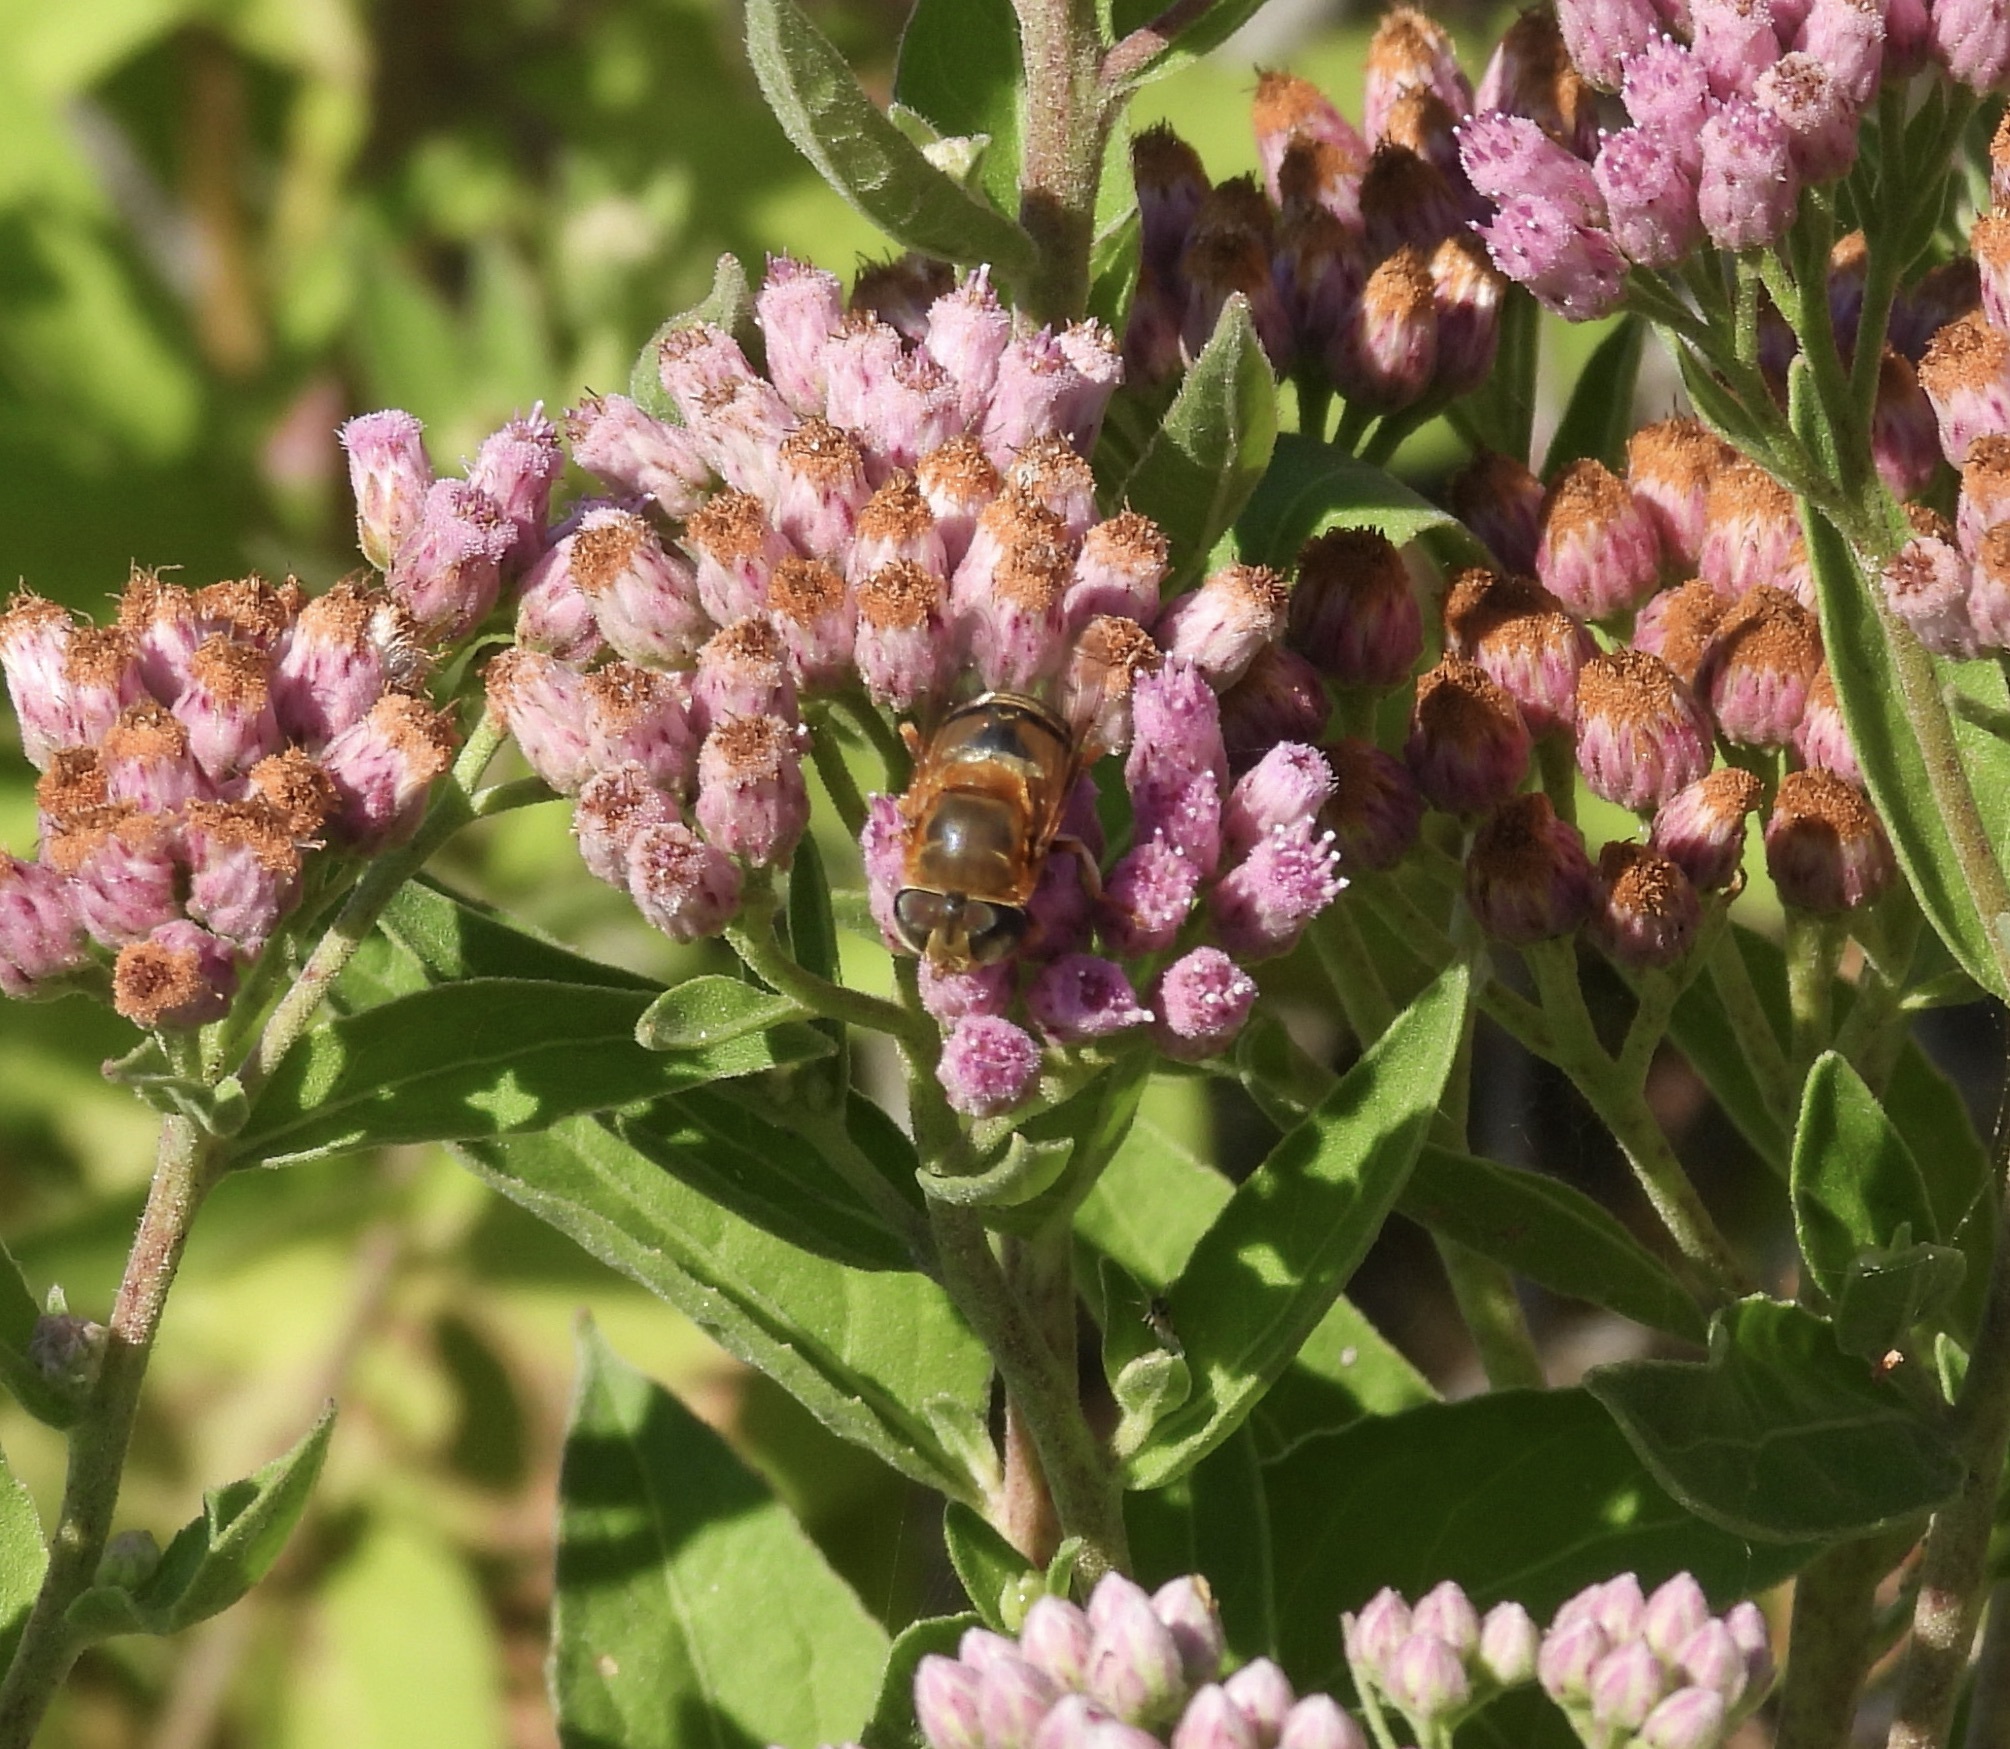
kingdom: Animalia
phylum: Arthropoda
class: Insecta
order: Diptera
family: Syrphidae
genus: Palpada
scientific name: Palpada mexicana
